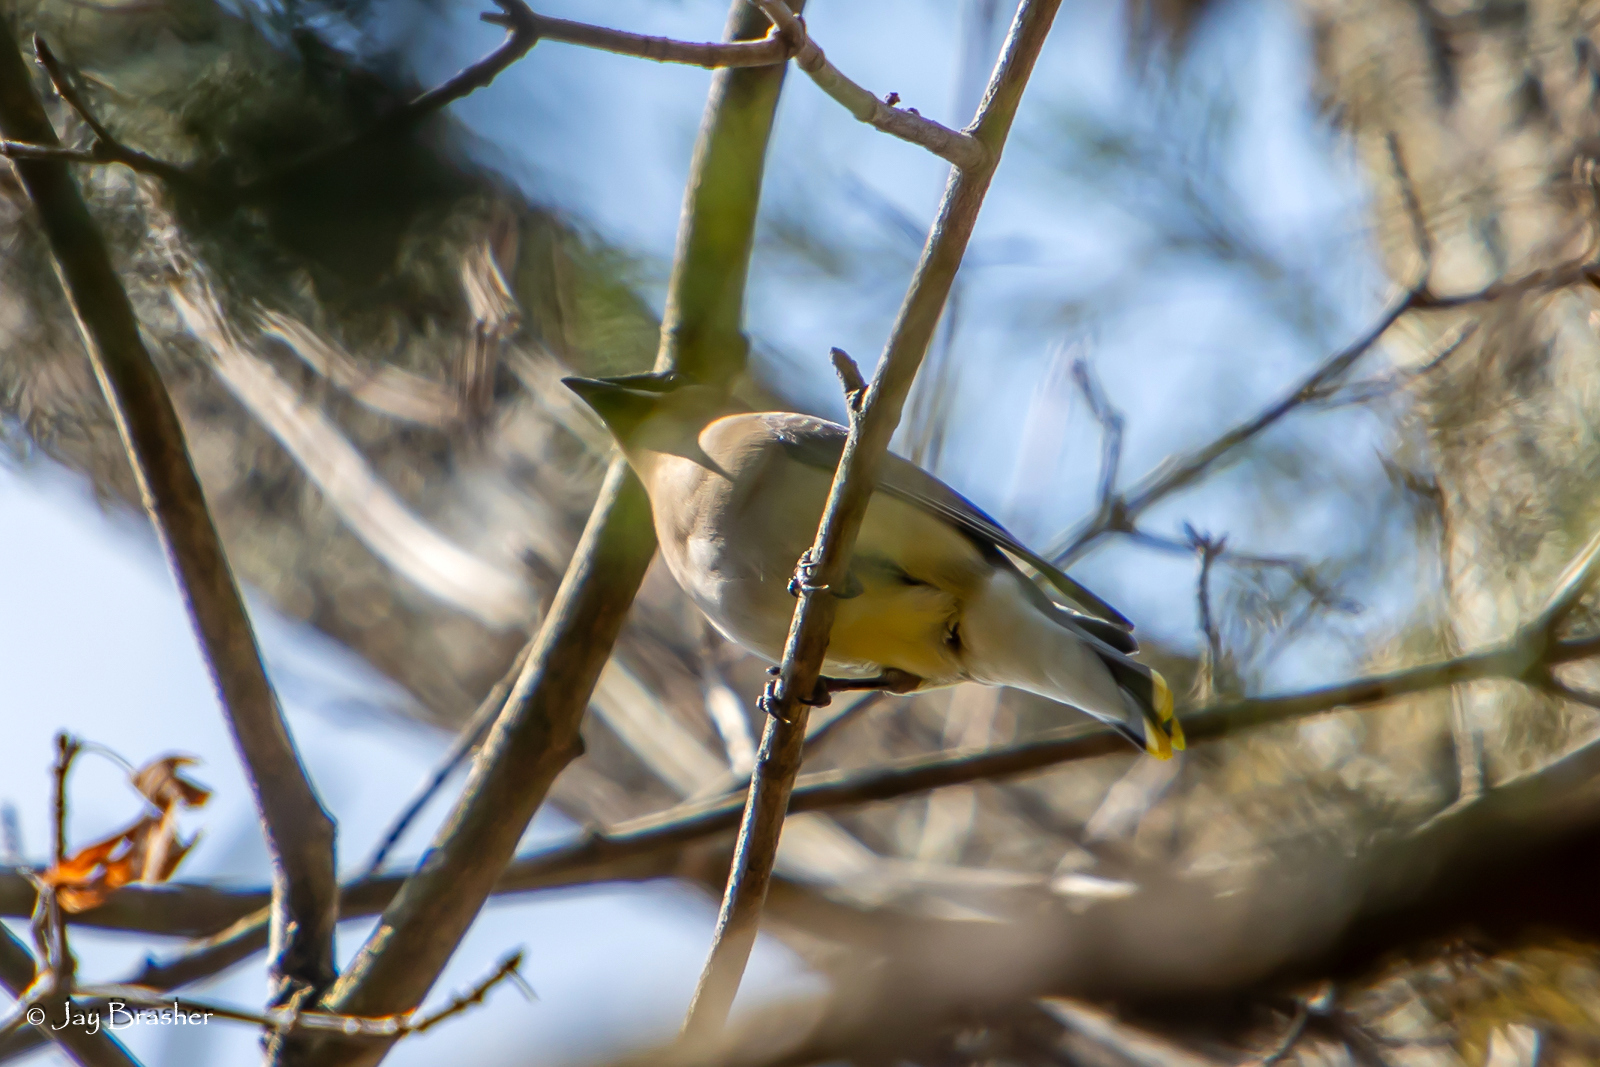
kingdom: Animalia
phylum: Chordata
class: Aves
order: Passeriformes
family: Bombycillidae
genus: Bombycilla
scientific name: Bombycilla cedrorum
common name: Cedar waxwing
